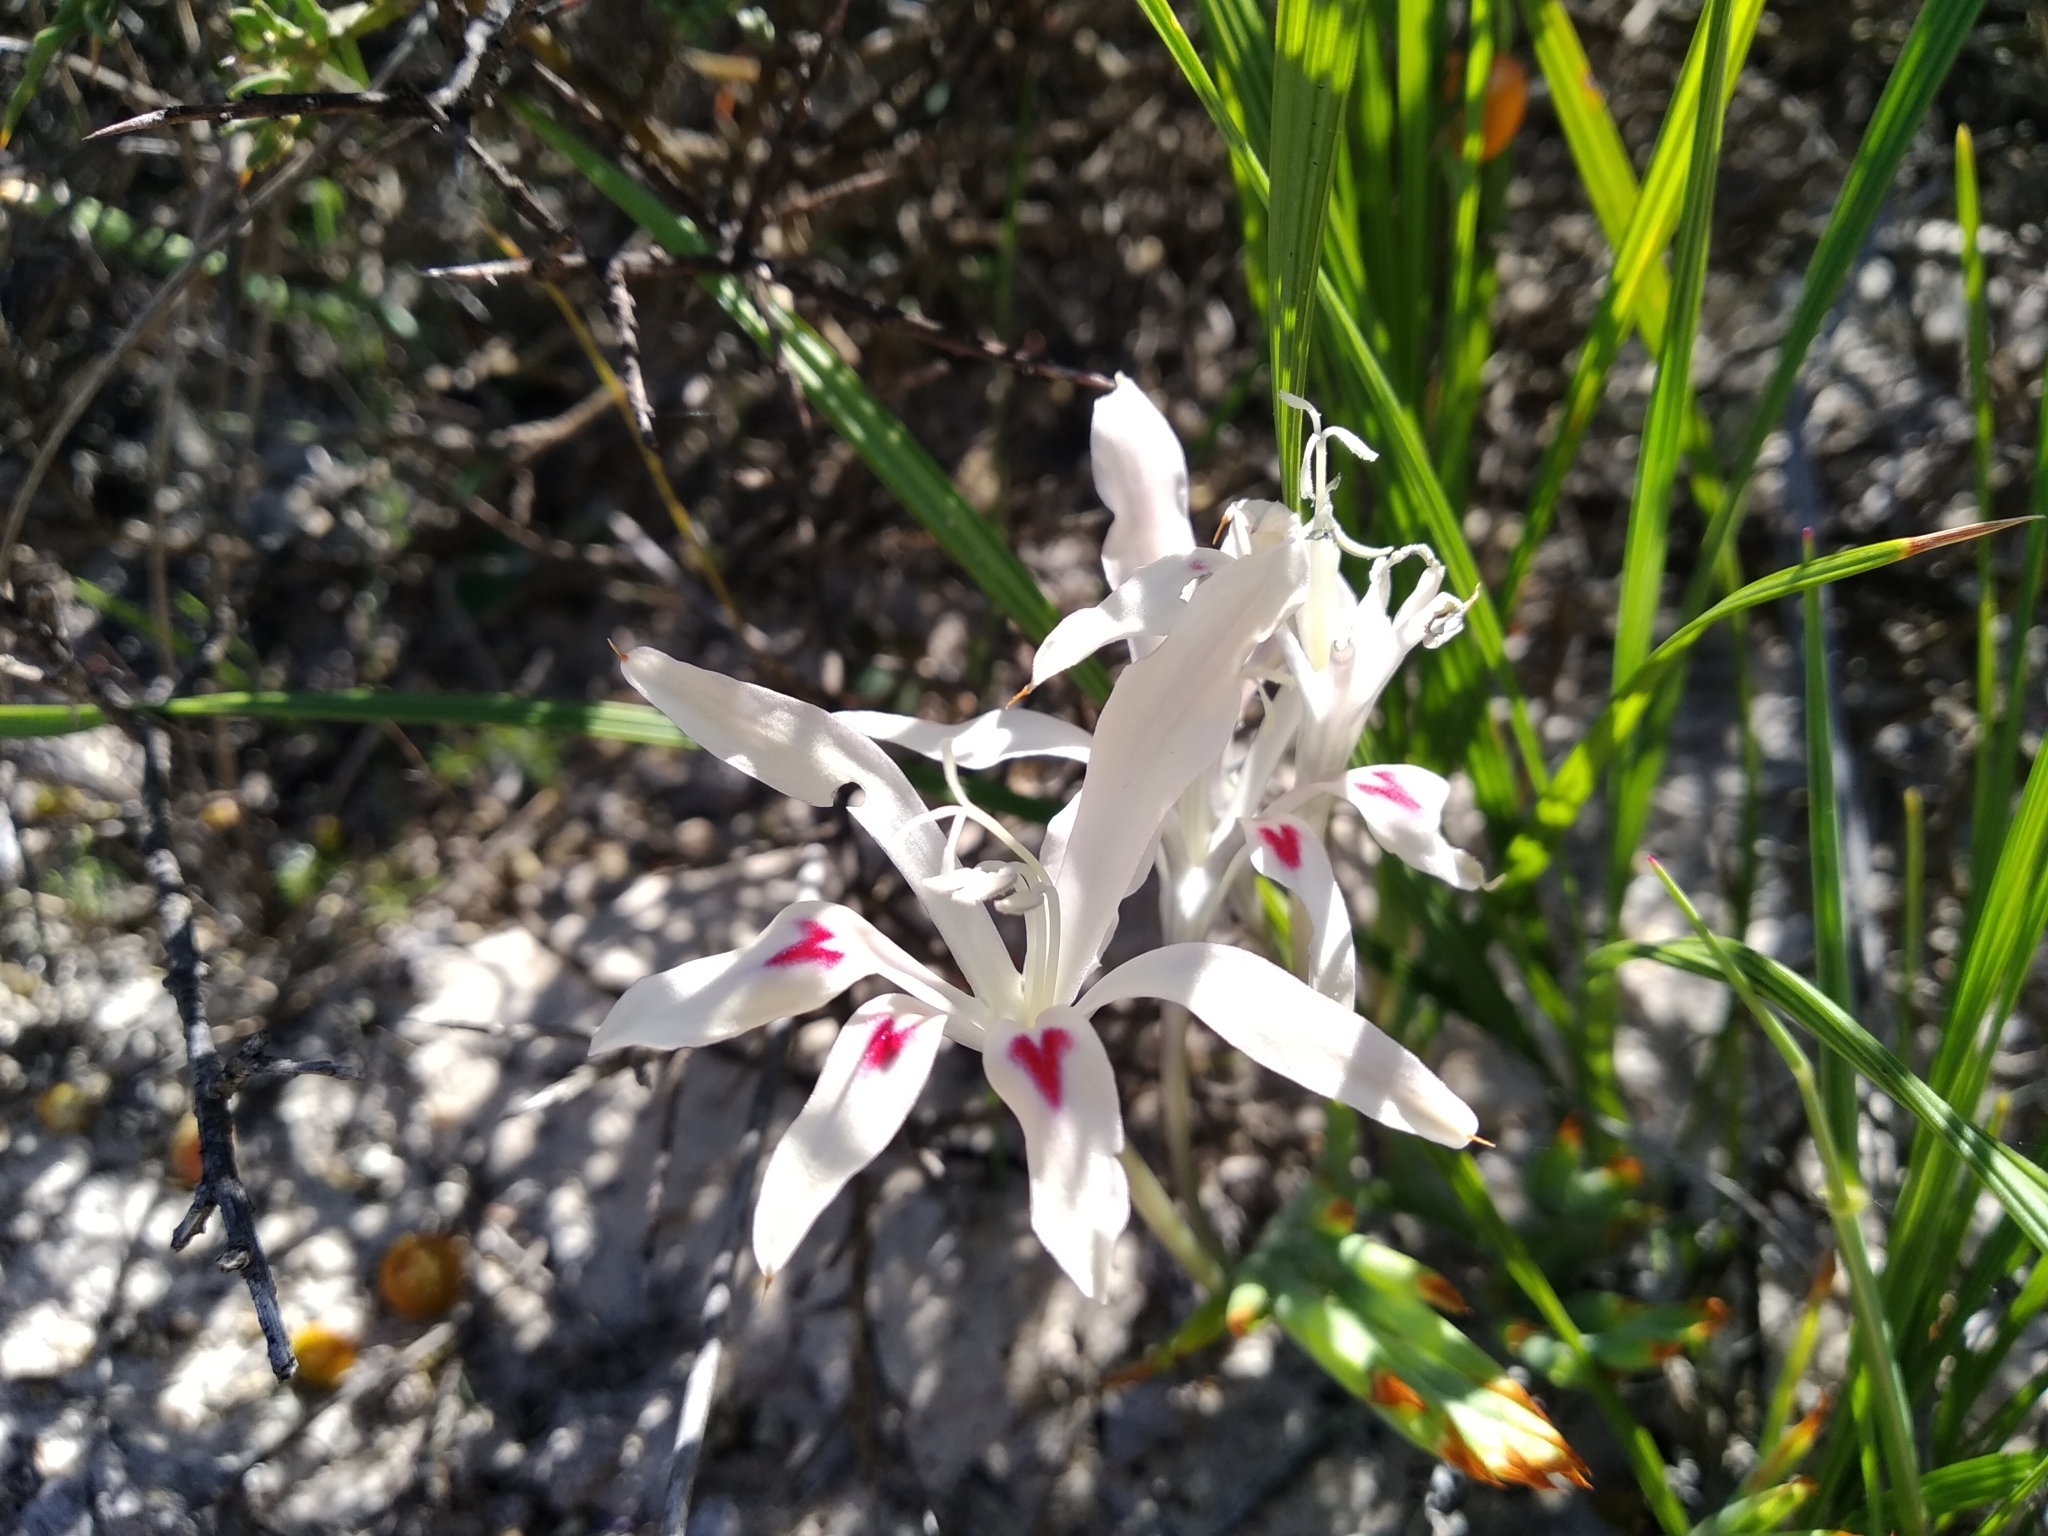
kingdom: Plantae
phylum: Tracheophyta
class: Liliopsida
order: Asparagales
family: Iridaceae
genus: Babiana
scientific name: Babiana tubiflora
